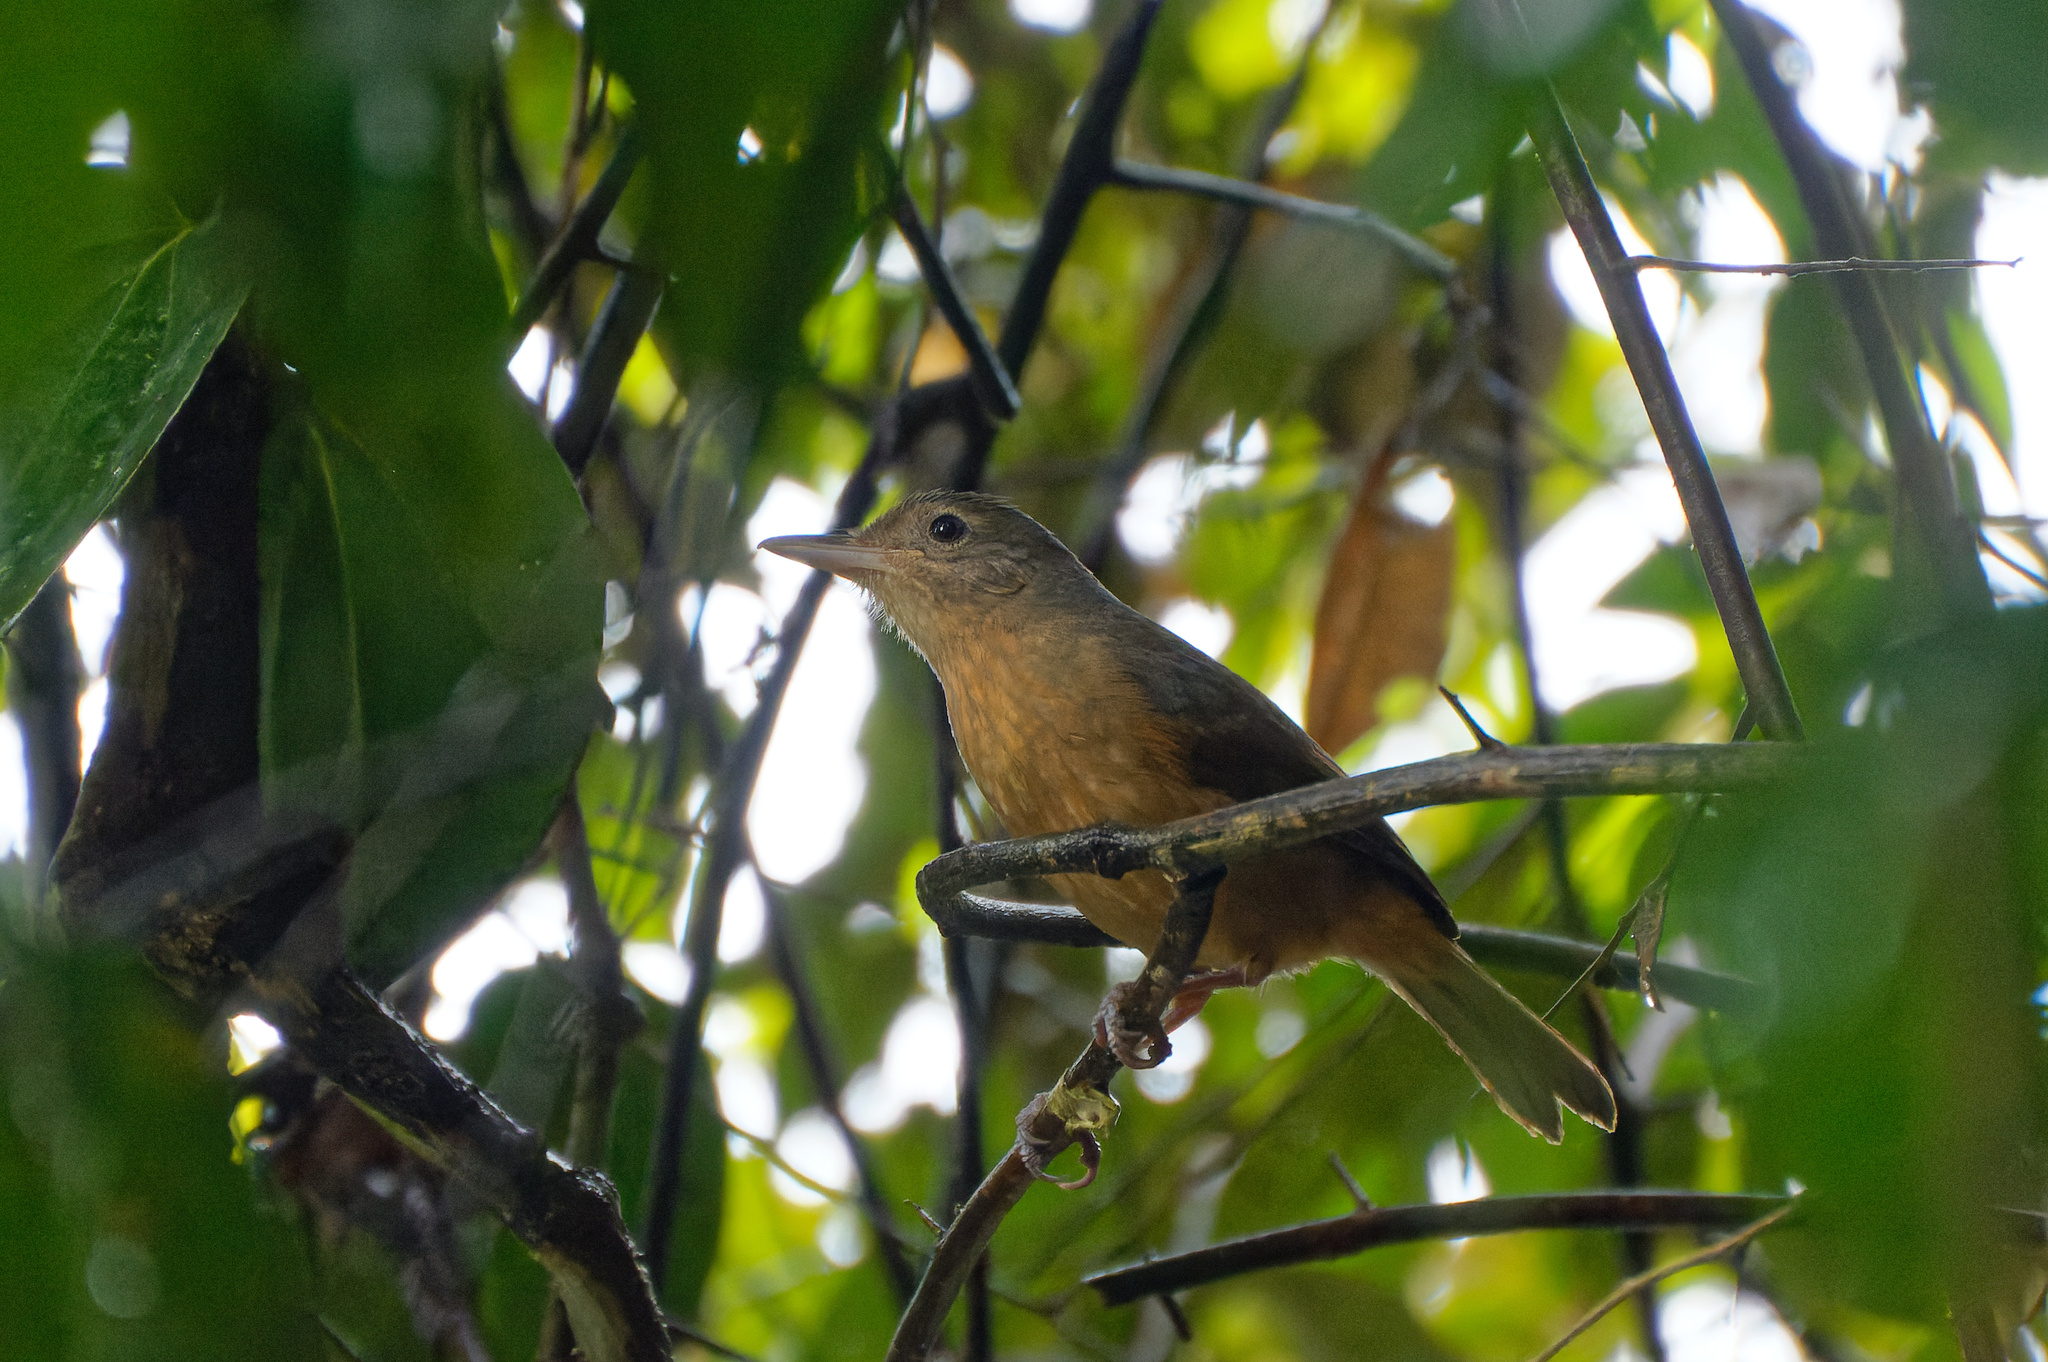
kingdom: Animalia
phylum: Chordata
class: Aves
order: Passeriformes
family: Pachycephalidae
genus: Colluricincla
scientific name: Colluricincla rufogaster
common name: Rufous shrikethrush
